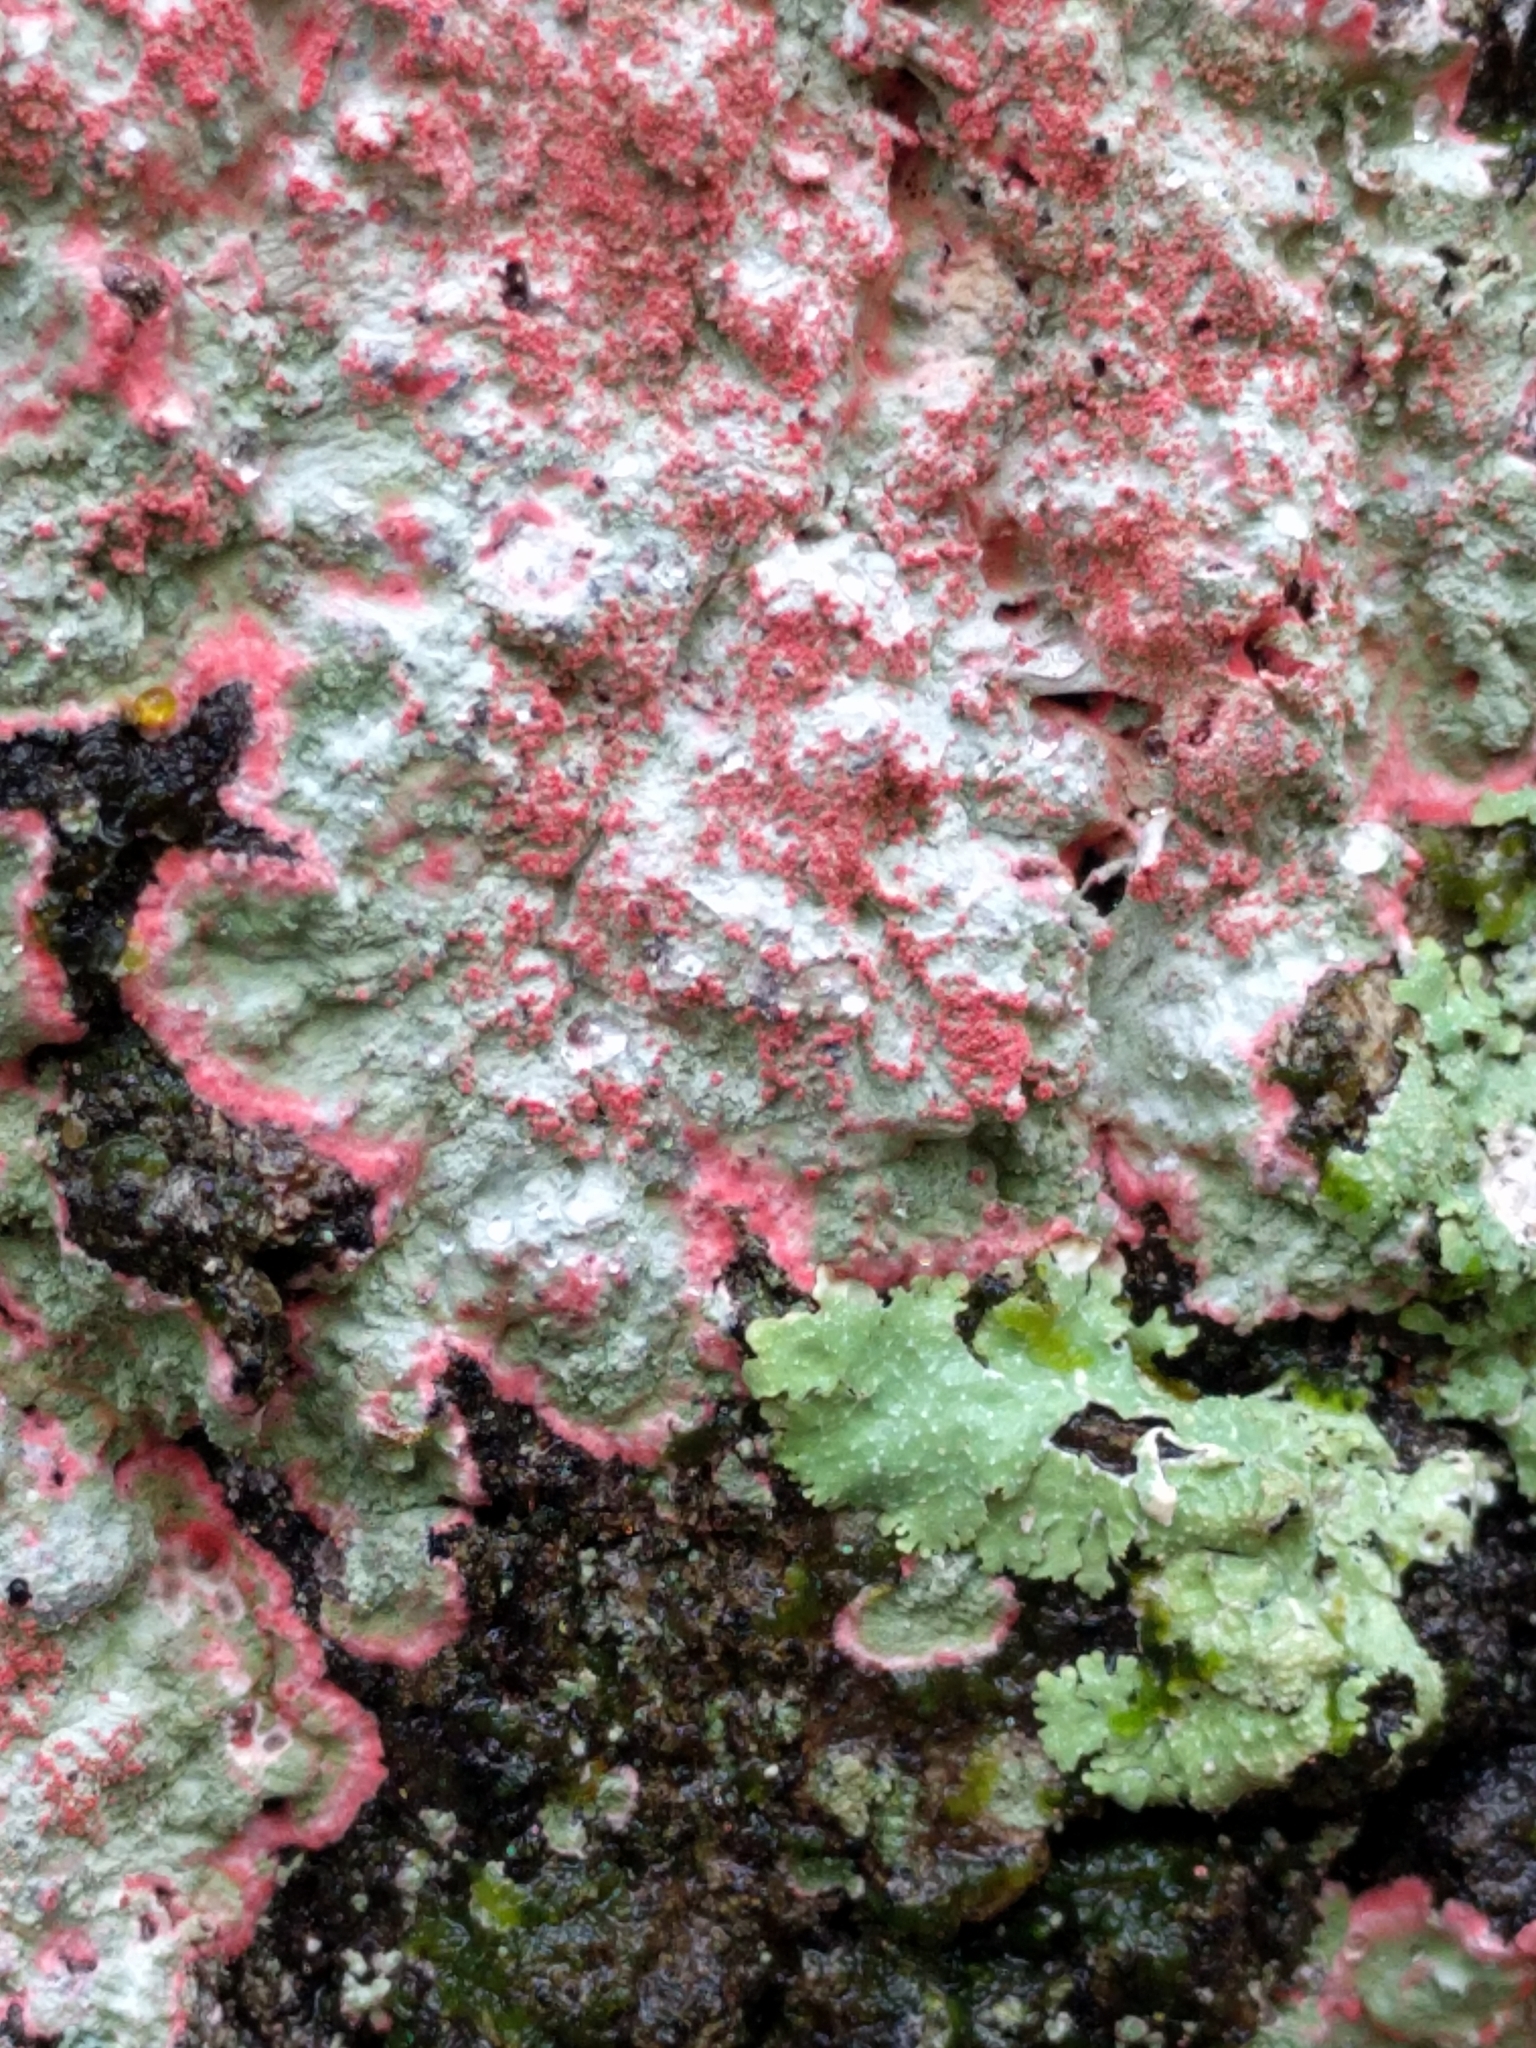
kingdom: Fungi
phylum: Ascomycota
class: Arthoniomycetes
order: Arthoniales
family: Arthoniaceae
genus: Herpothallon
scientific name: Herpothallon rubrocinctum
